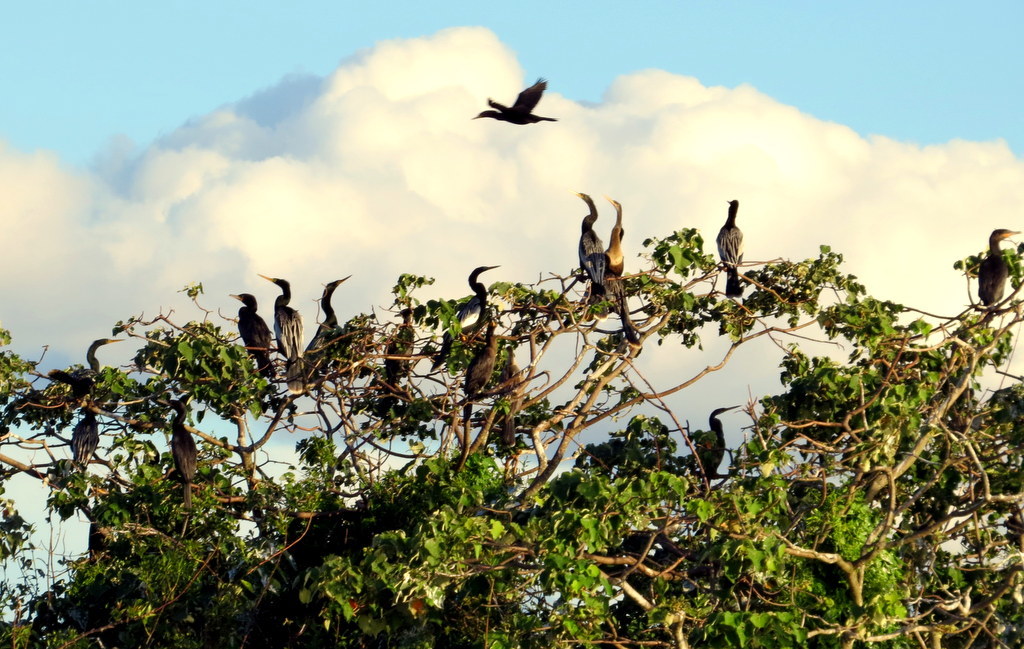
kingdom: Animalia
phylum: Chordata
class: Aves
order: Suliformes
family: Anhingidae
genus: Anhinga
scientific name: Anhinga anhinga
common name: Anhinga
